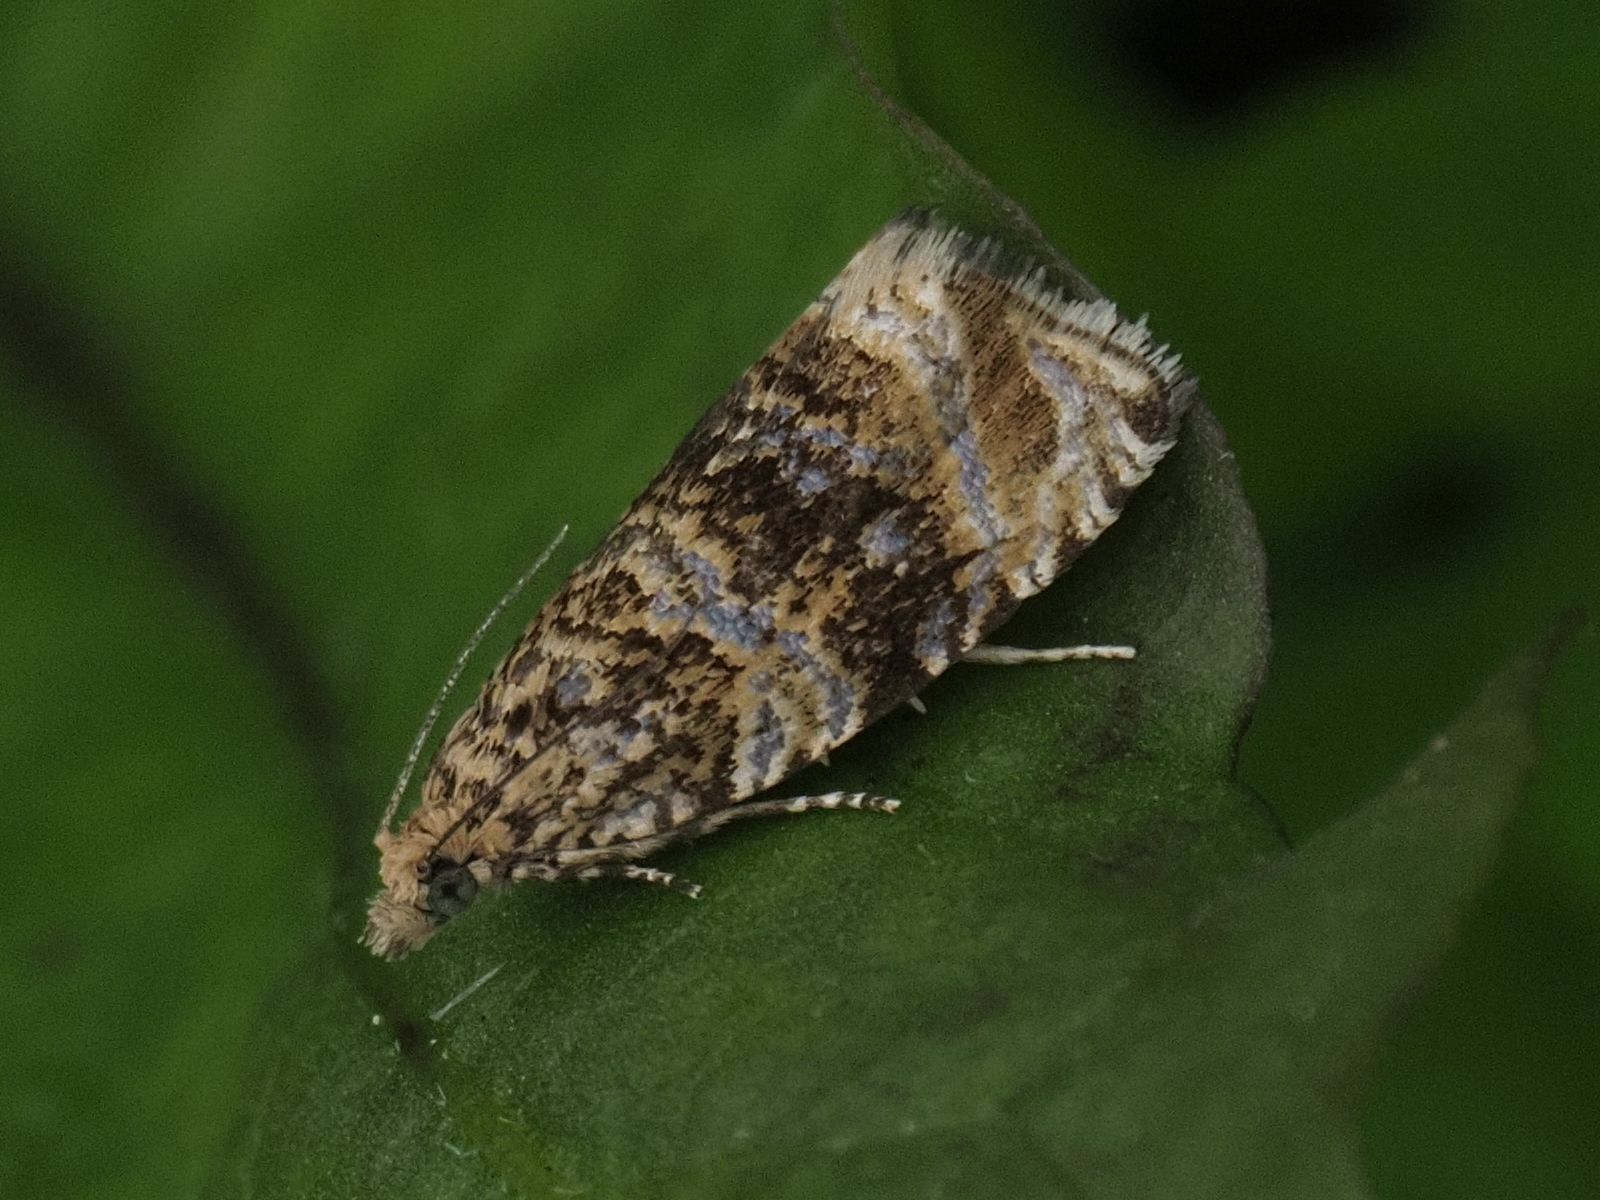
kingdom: Animalia
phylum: Arthropoda
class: Insecta
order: Lepidoptera
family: Tortricidae
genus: Syricoris
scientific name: Syricoris lacunana
